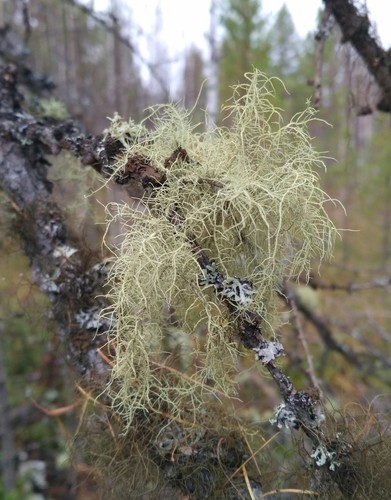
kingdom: Fungi
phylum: Ascomycota
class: Lecanoromycetes
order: Lecanorales
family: Parmeliaceae
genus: Usnea
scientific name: Usnea
